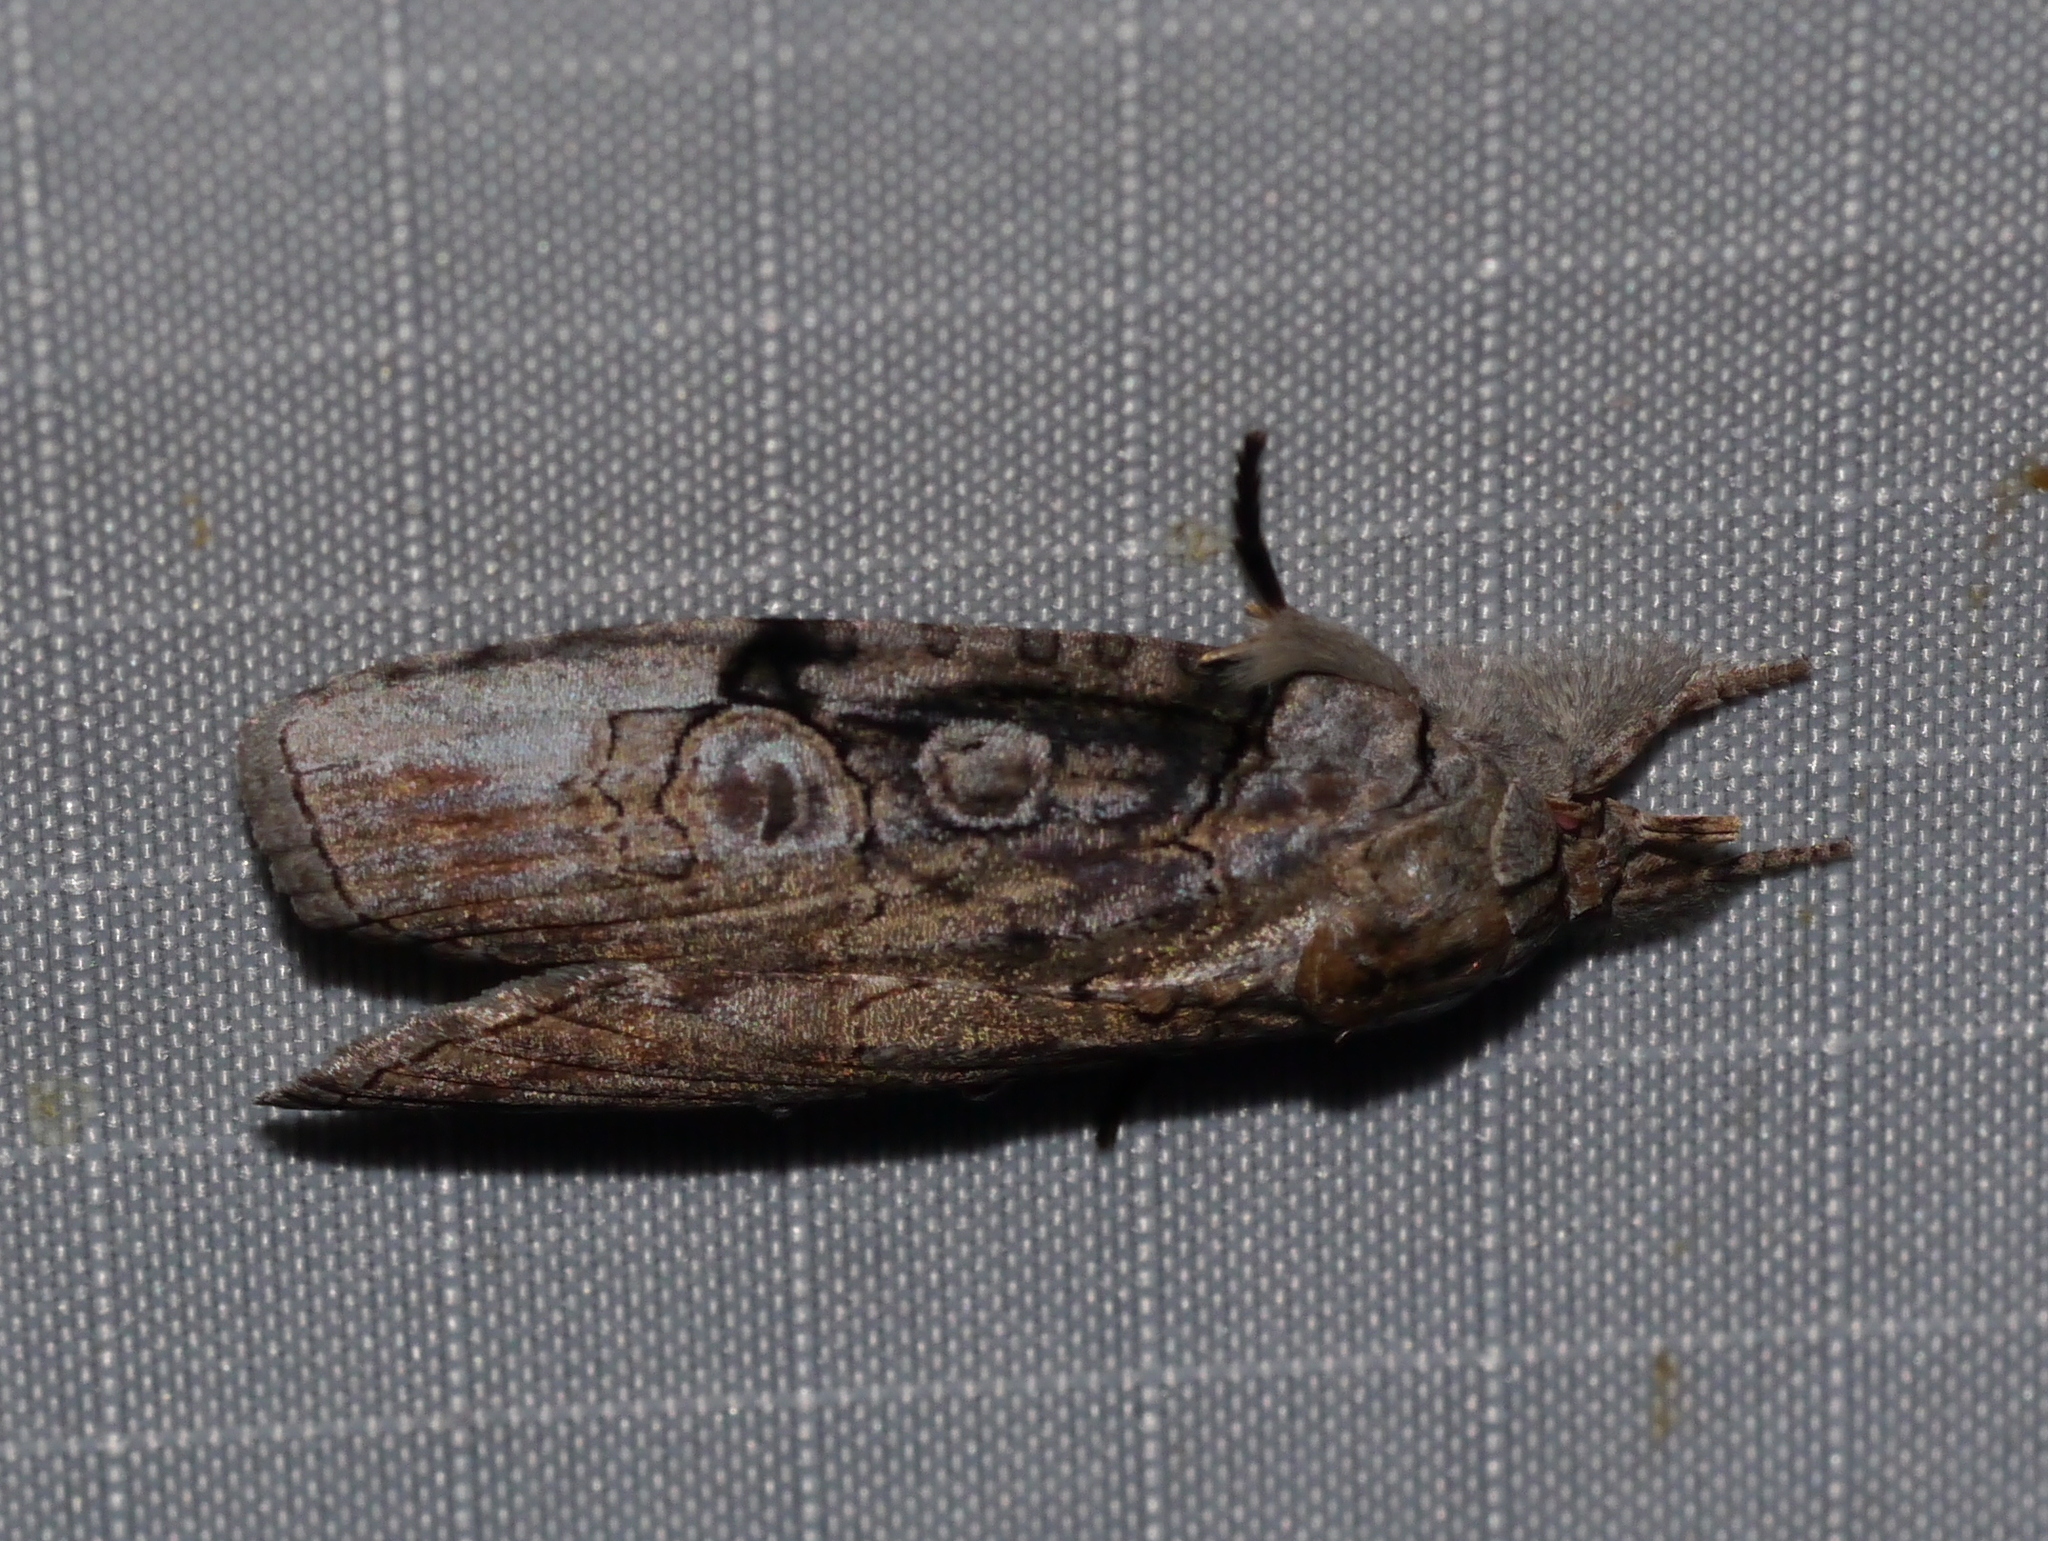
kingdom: Animalia
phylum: Arthropoda
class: Insecta
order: Lepidoptera
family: Nolidae
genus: Iscadia
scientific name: Iscadia aperta
